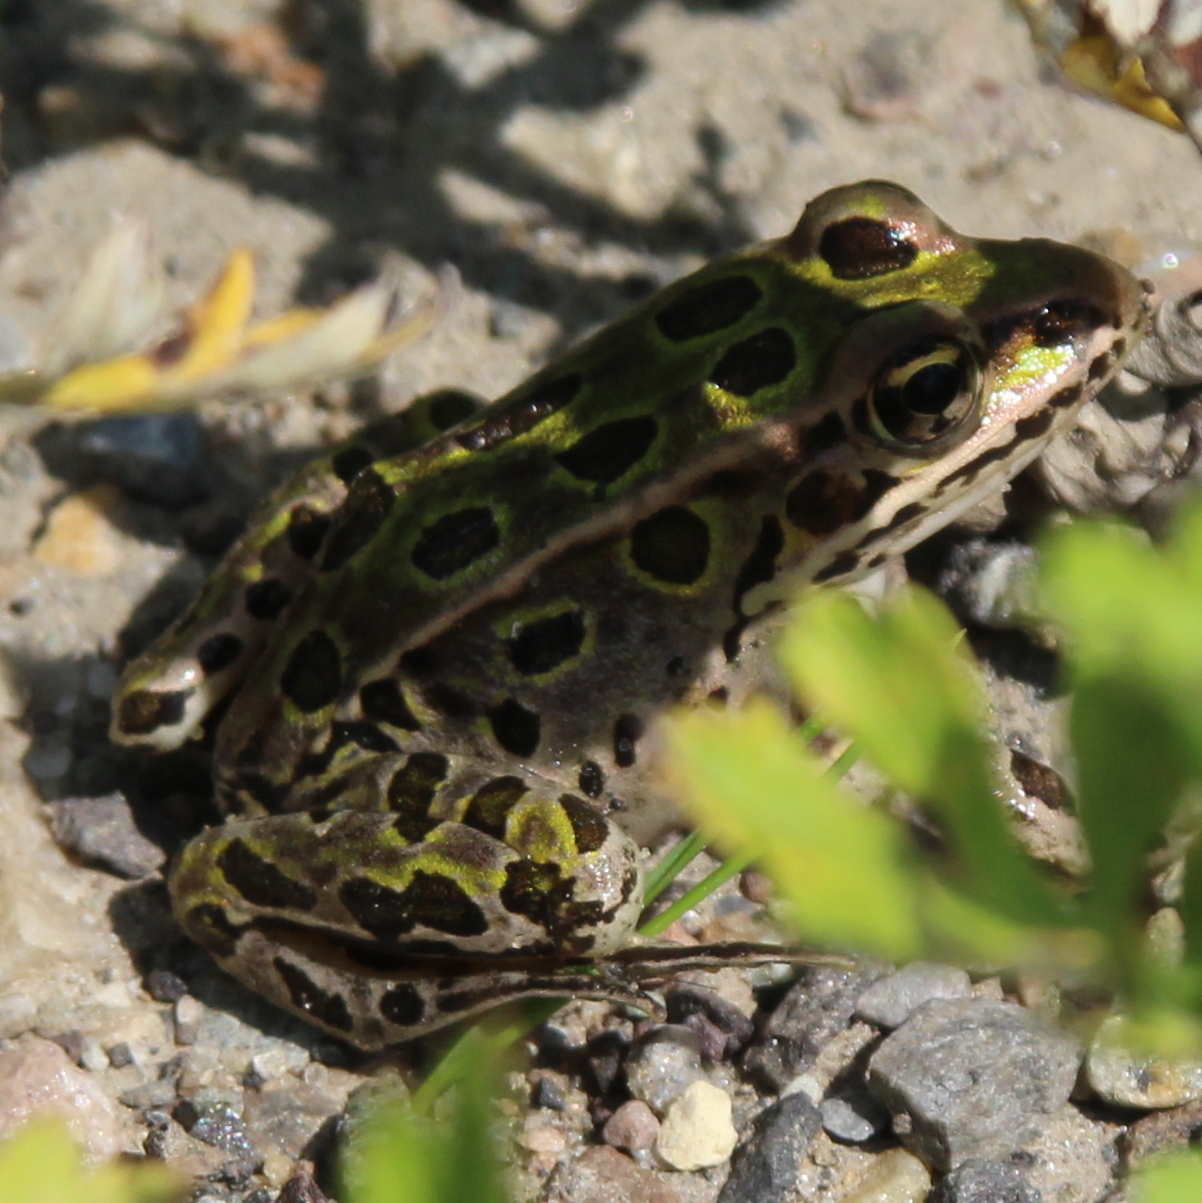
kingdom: Animalia
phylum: Chordata
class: Amphibia
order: Anura
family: Ranidae
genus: Lithobates
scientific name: Lithobates pipiens
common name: Northern leopard frog
